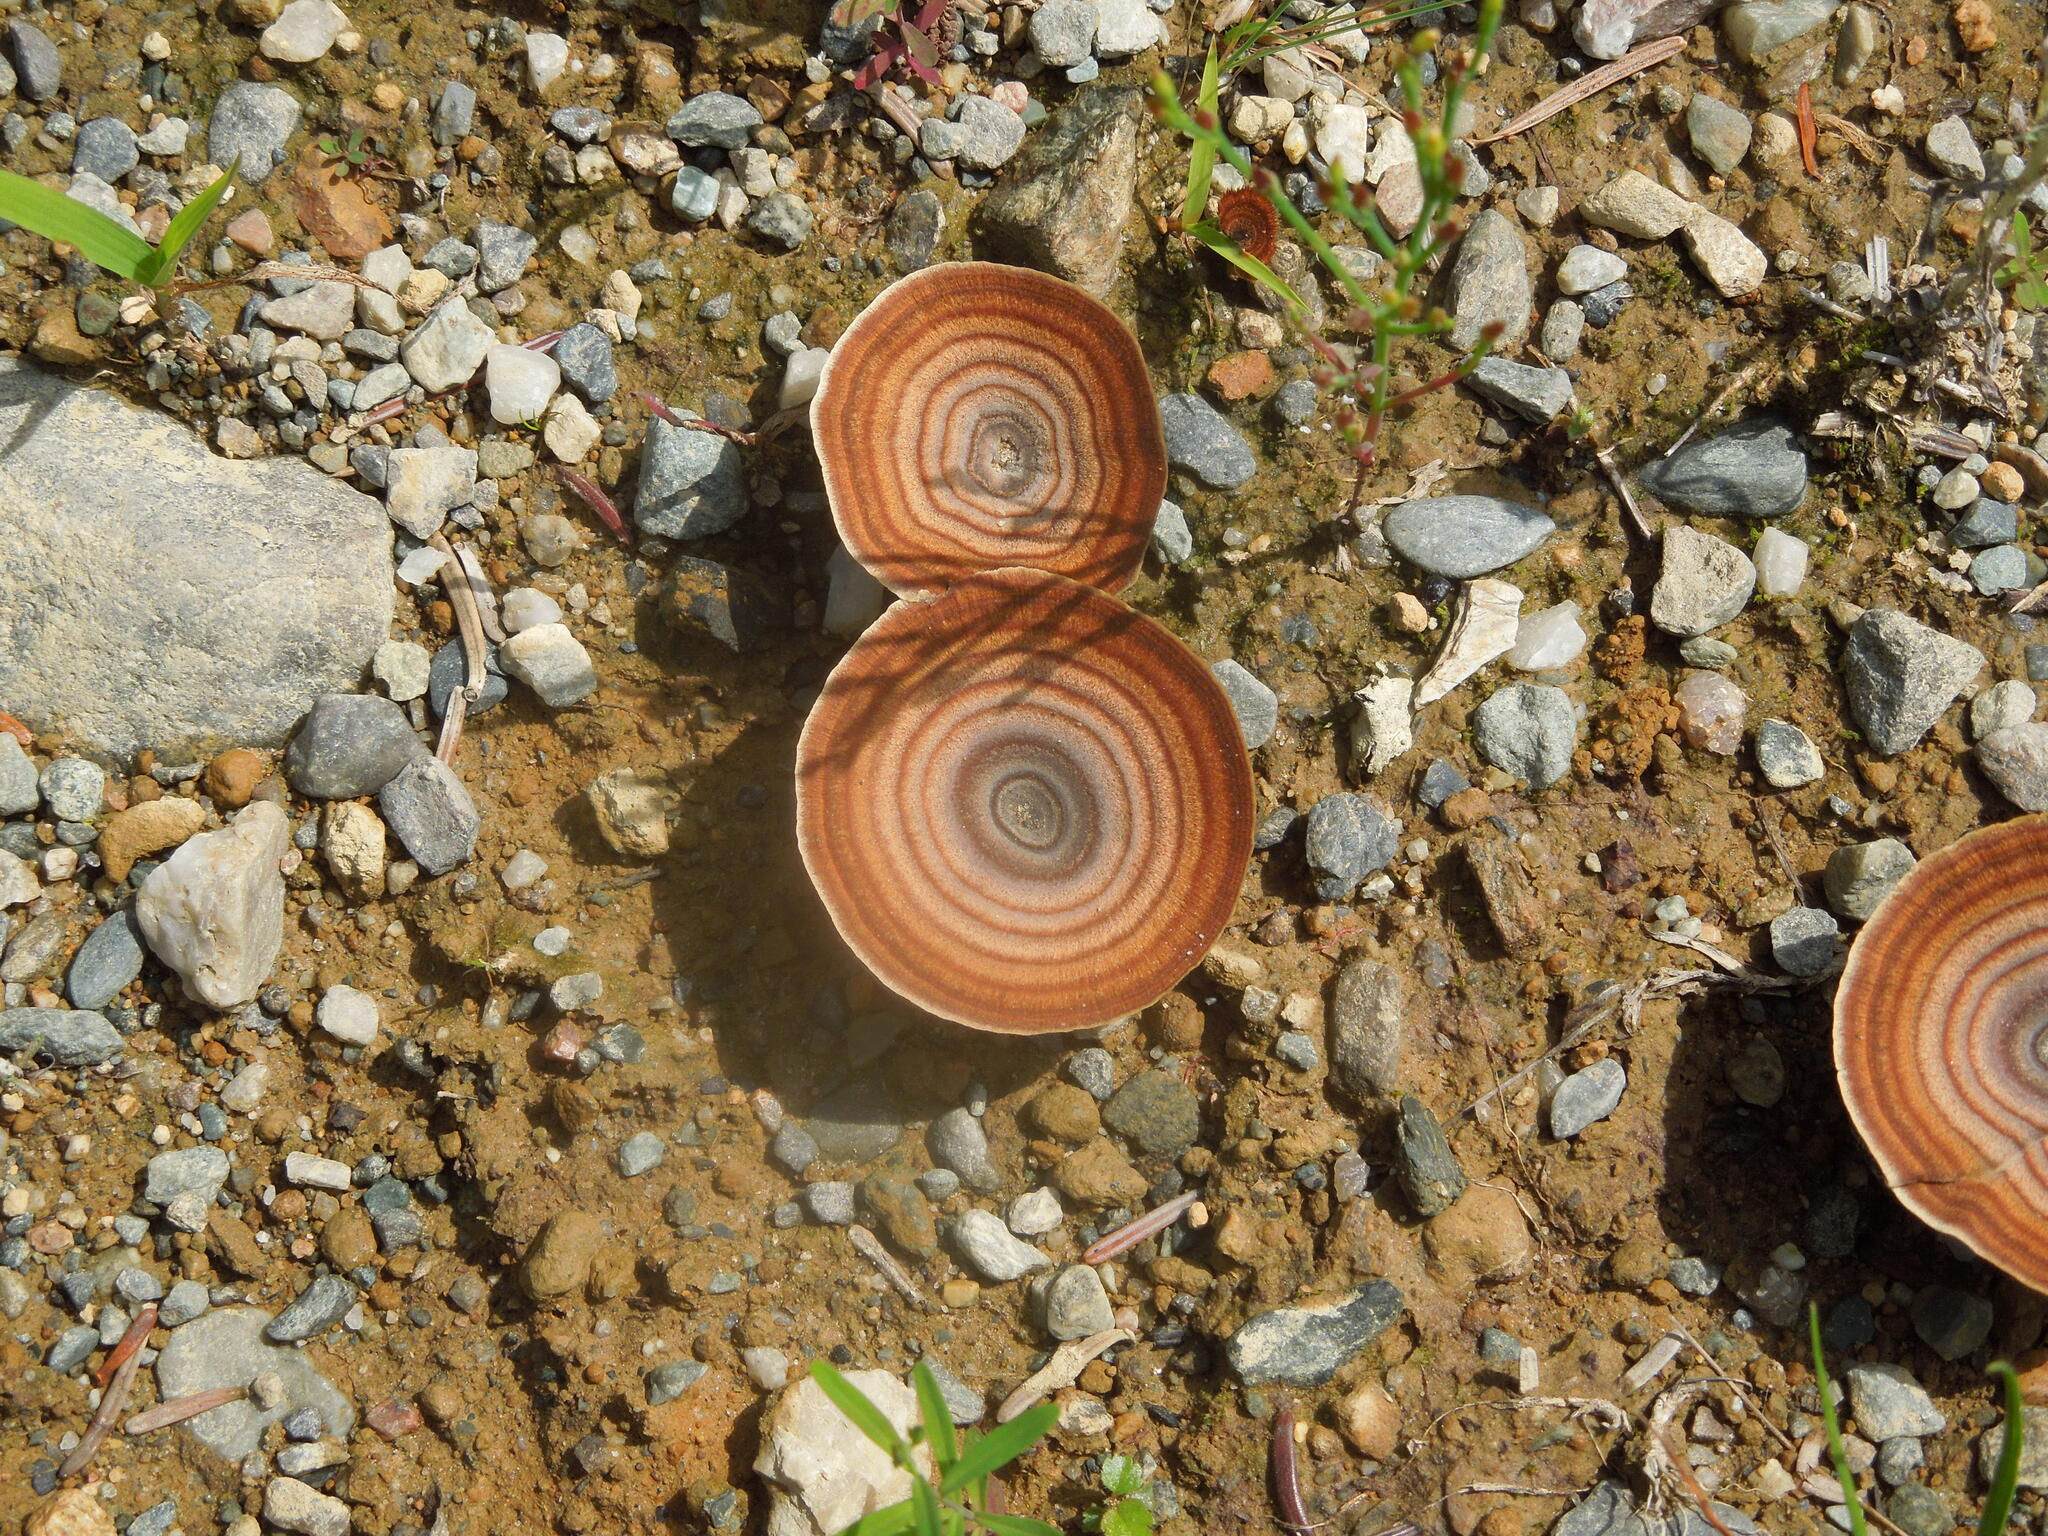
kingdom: Fungi
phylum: Basidiomycota
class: Agaricomycetes
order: Hymenochaetales
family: Hymenochaetaceae
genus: Coltricia
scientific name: Coltricia perennis
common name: Tiger's eye
